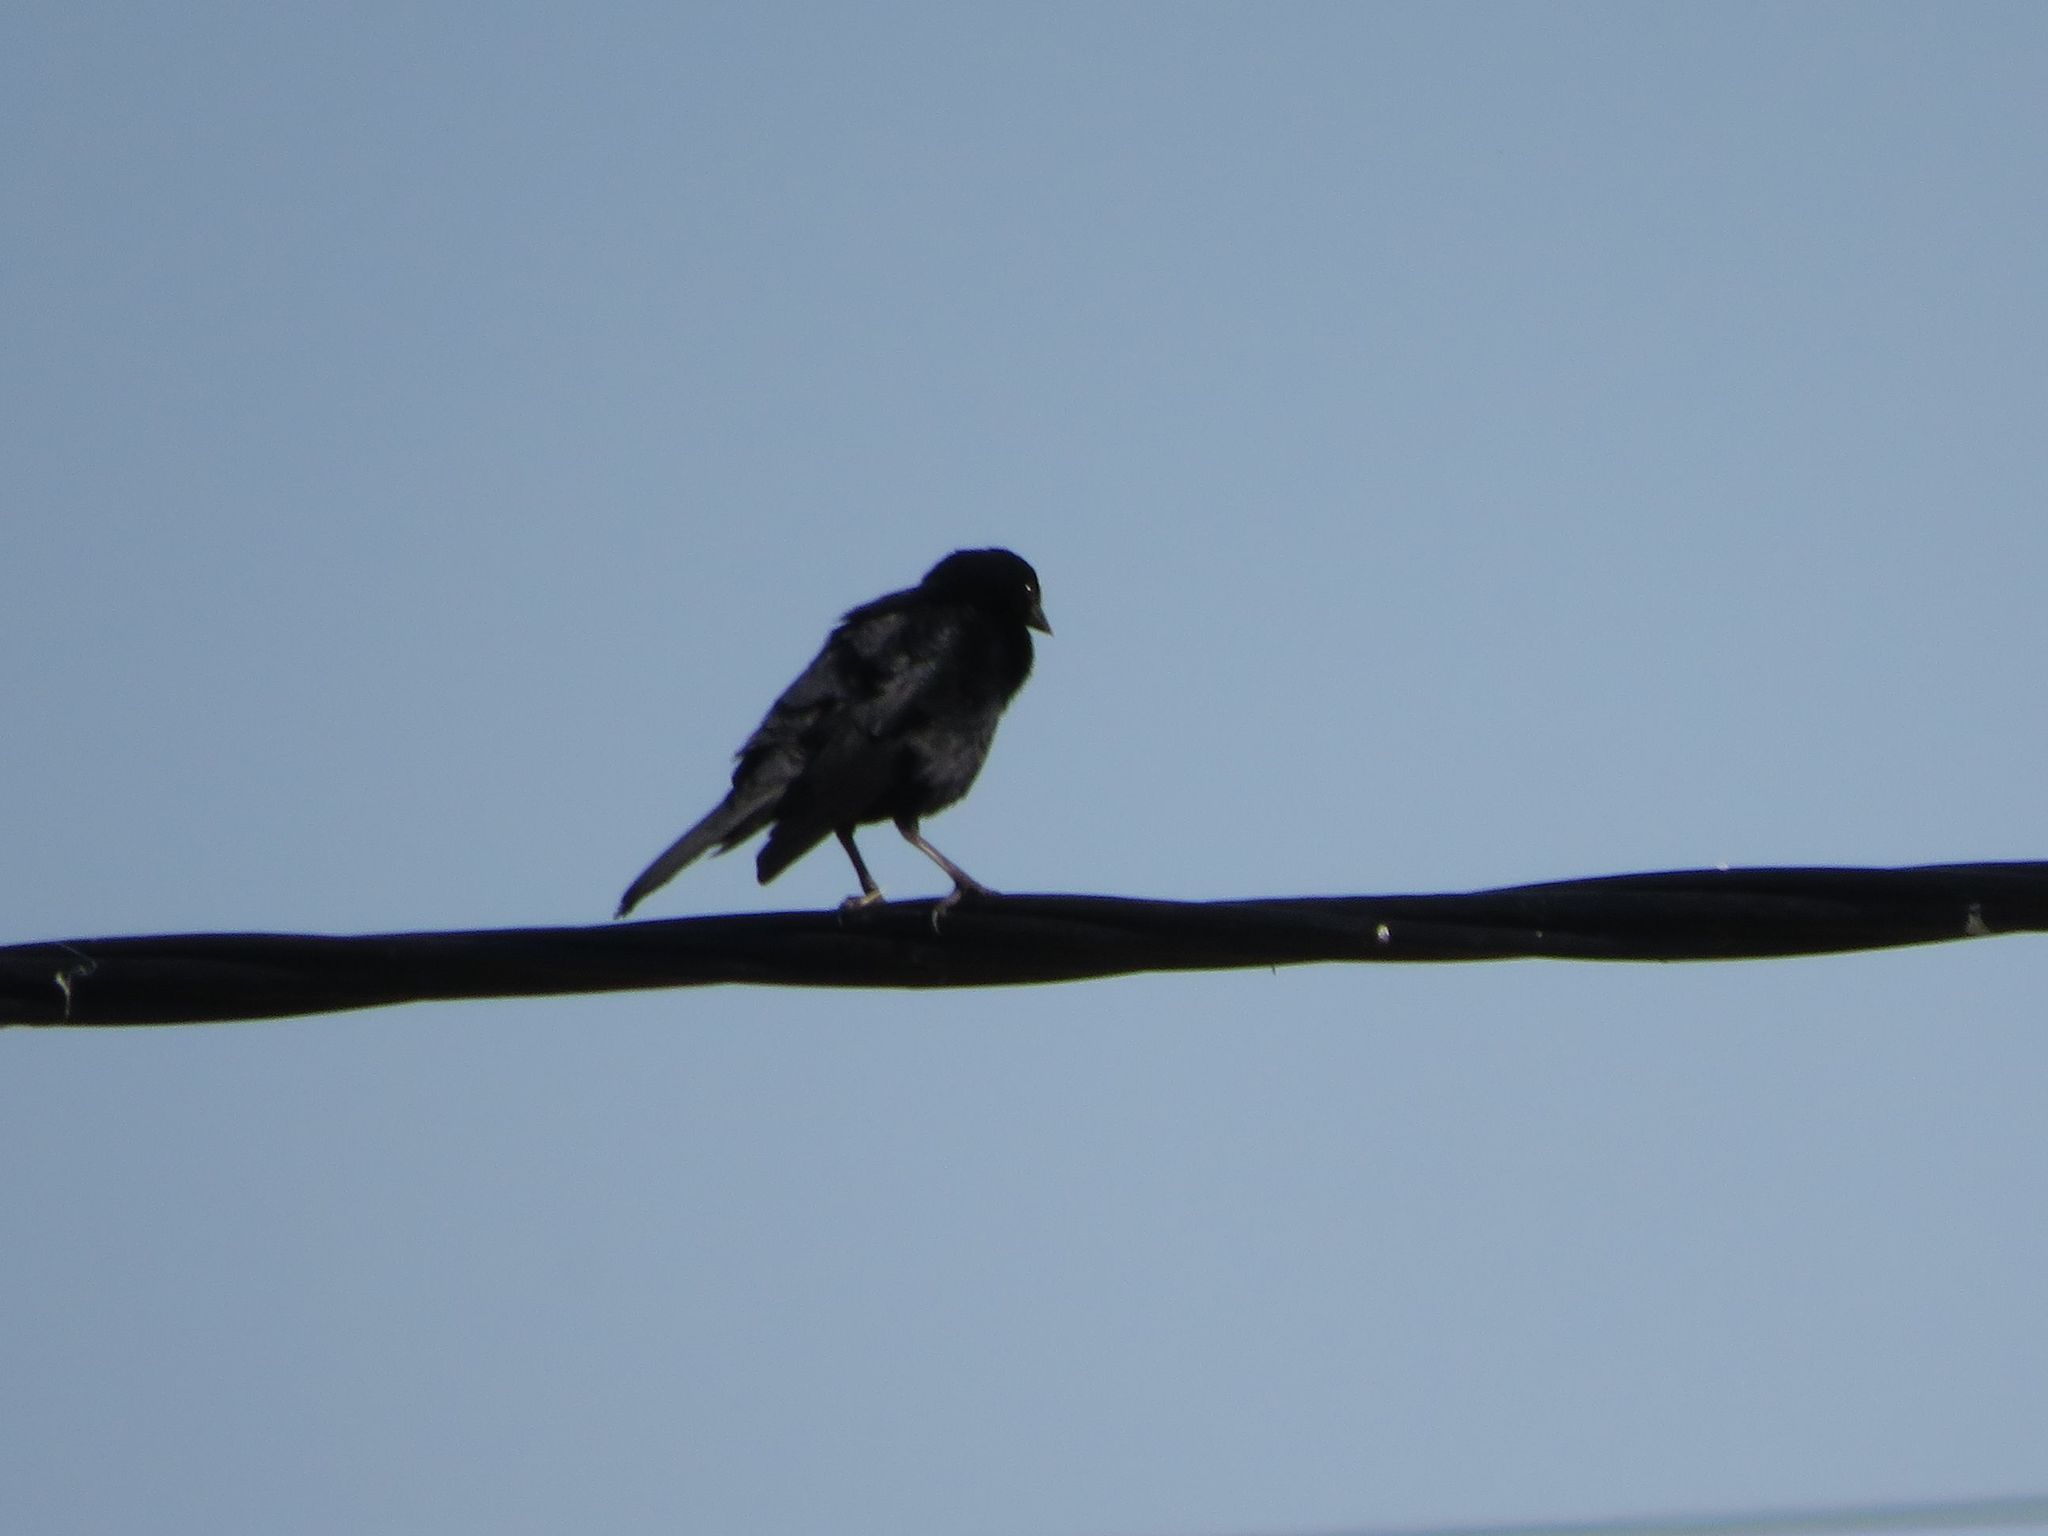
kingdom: Animalia
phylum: Chordata
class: Aves
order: Passeriformes
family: Icteridae
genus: Molothrus
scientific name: Molothrus bonariensis
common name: Shiny cowbird
